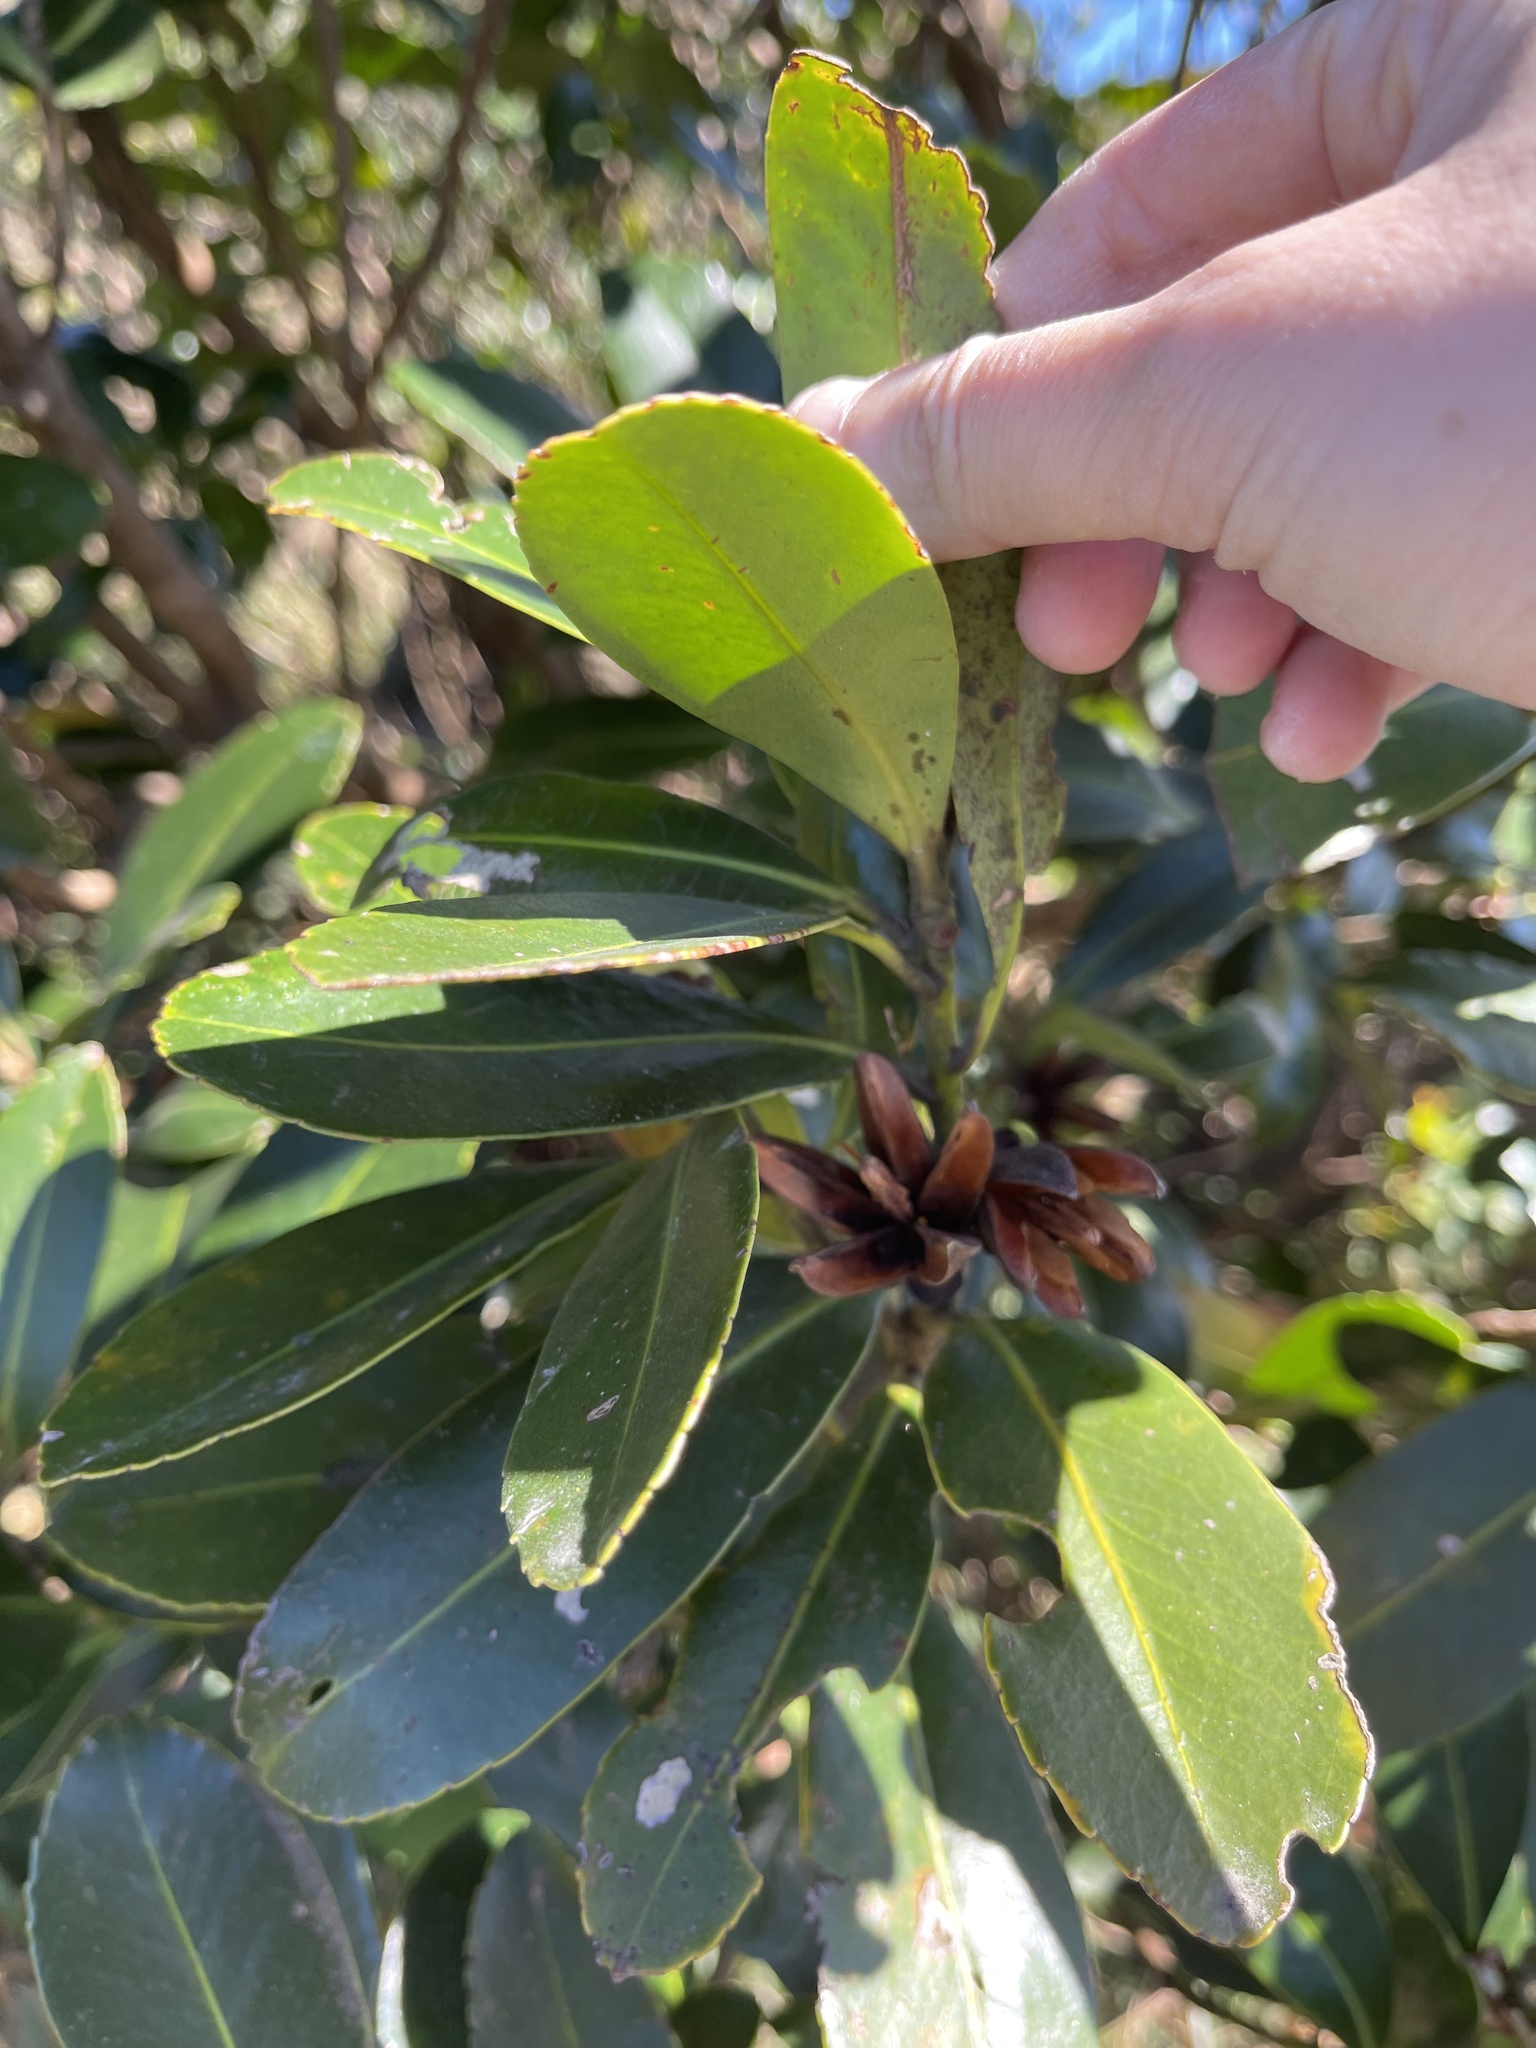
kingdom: Plantae
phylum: Tracheophyta
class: Magnoliopsida
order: Ericales
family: Theaceae
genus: Polyspora
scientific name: Polyspora axillaris
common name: Fried egg tree
